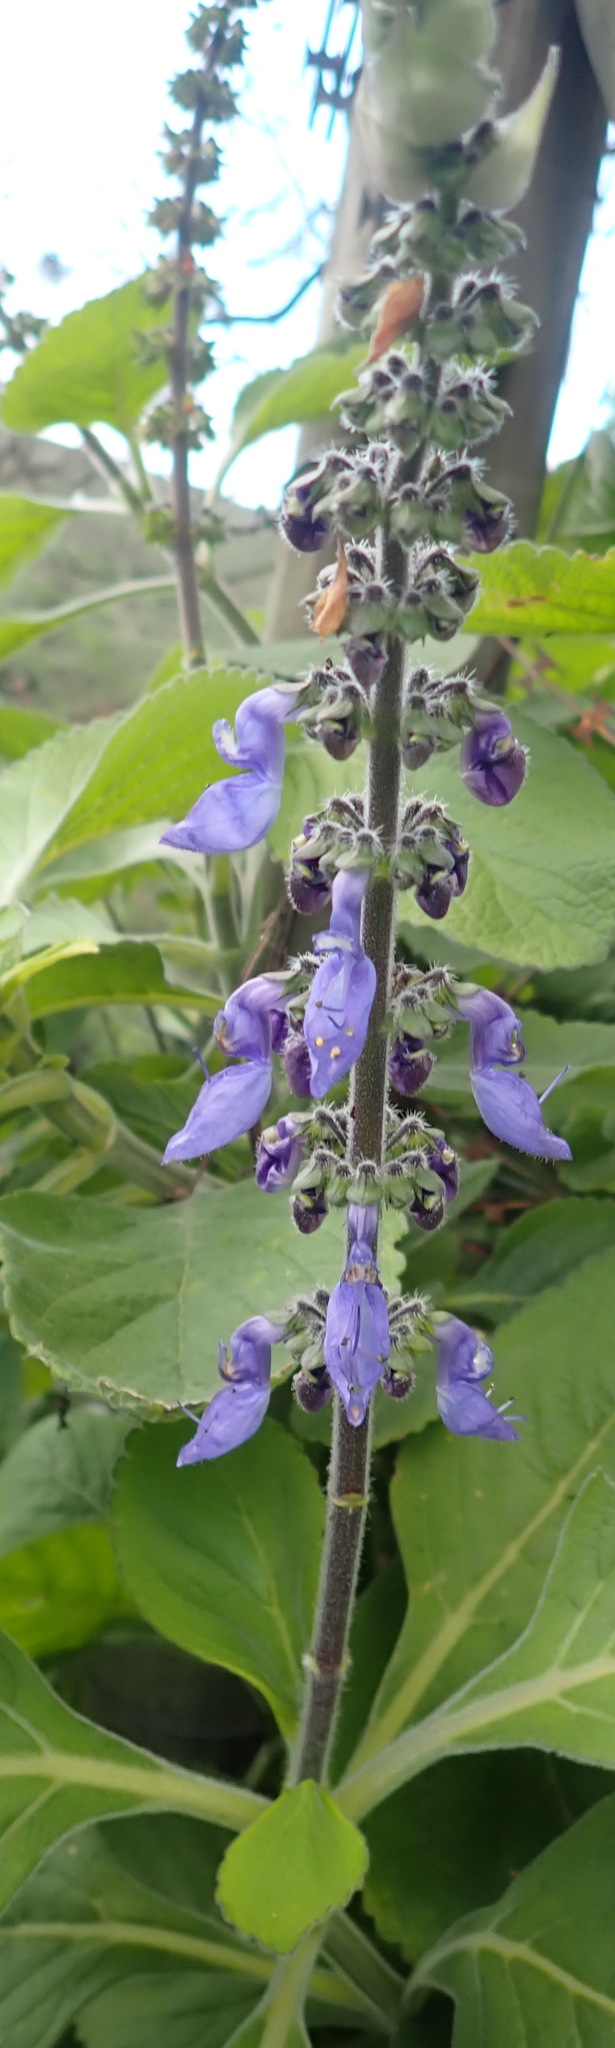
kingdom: Plantae
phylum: Tracheophyta
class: Magnoliopsida
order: Lamiales
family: Lamiaceae
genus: Coleus
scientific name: Coleus barbatus
